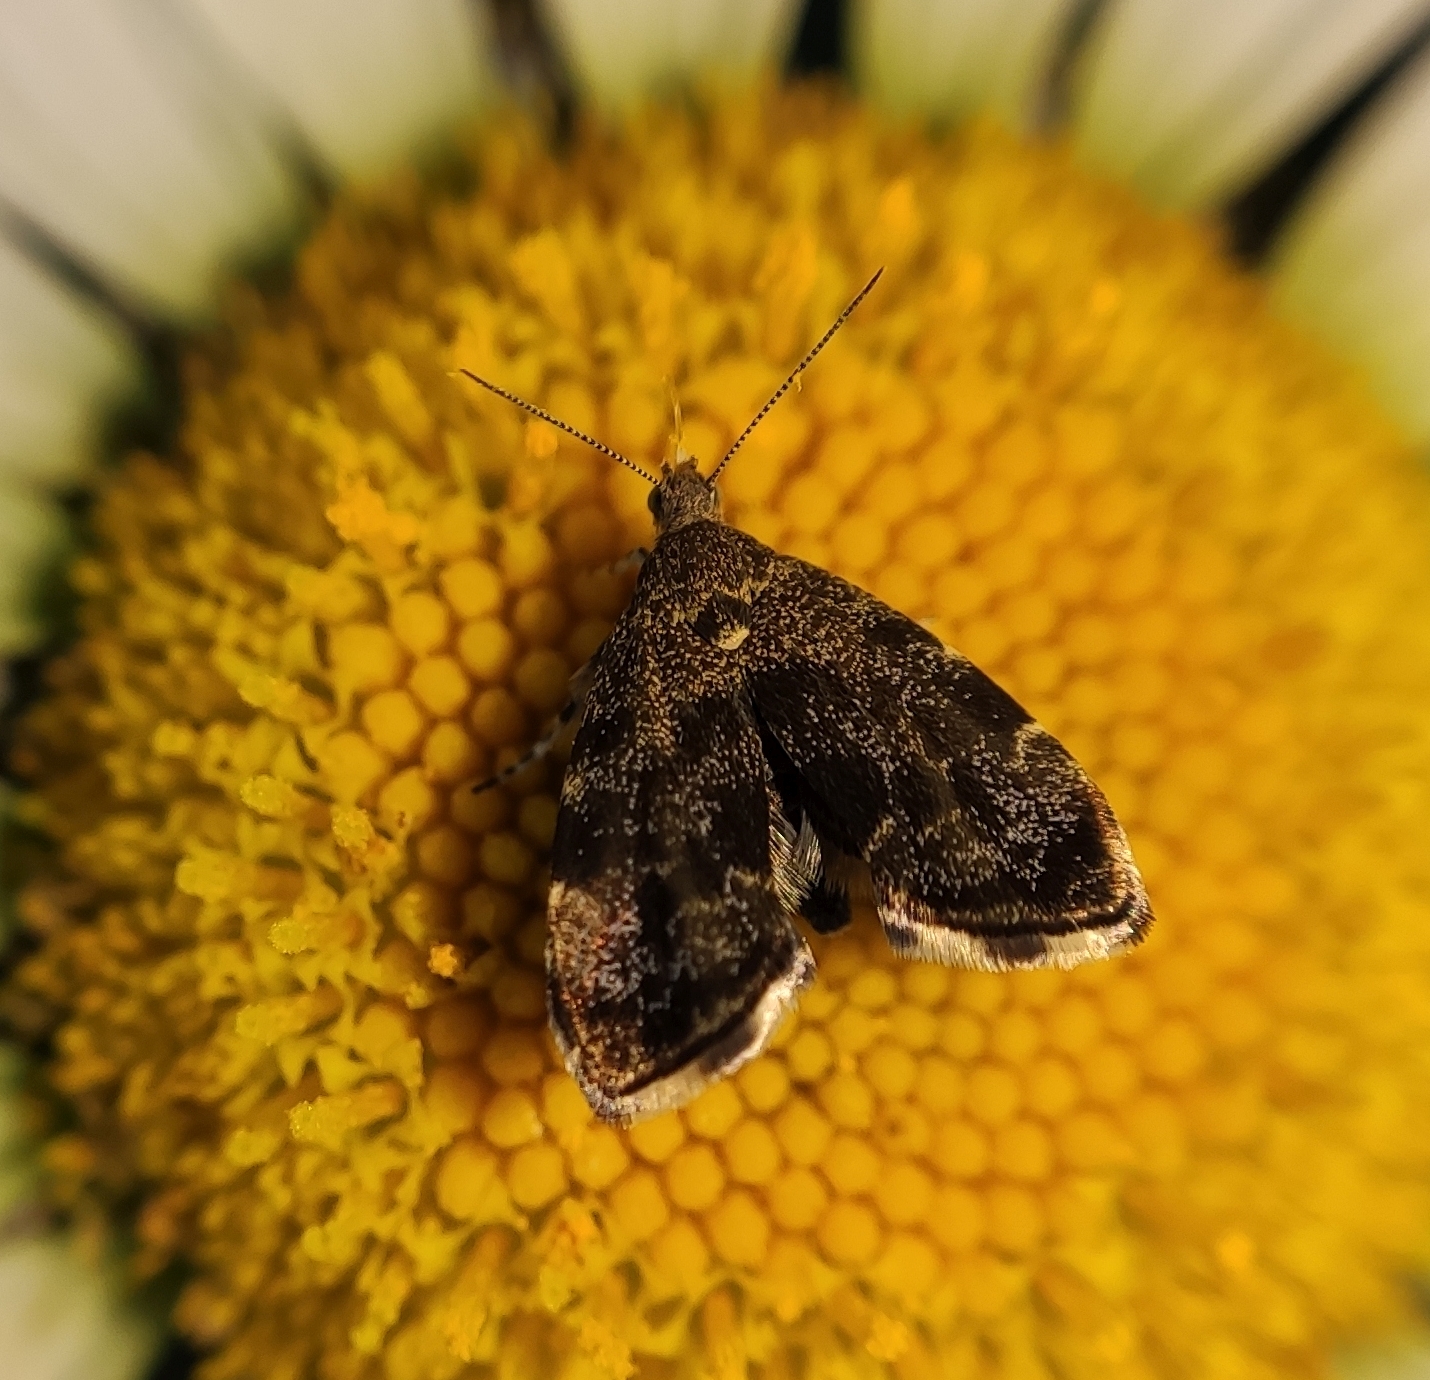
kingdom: Animalia
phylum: Arthropoda
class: Insecta
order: Lepidoptera
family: Choreutidae
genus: Anthophila
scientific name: Anthophila fabriciana
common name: Nettle-tap
